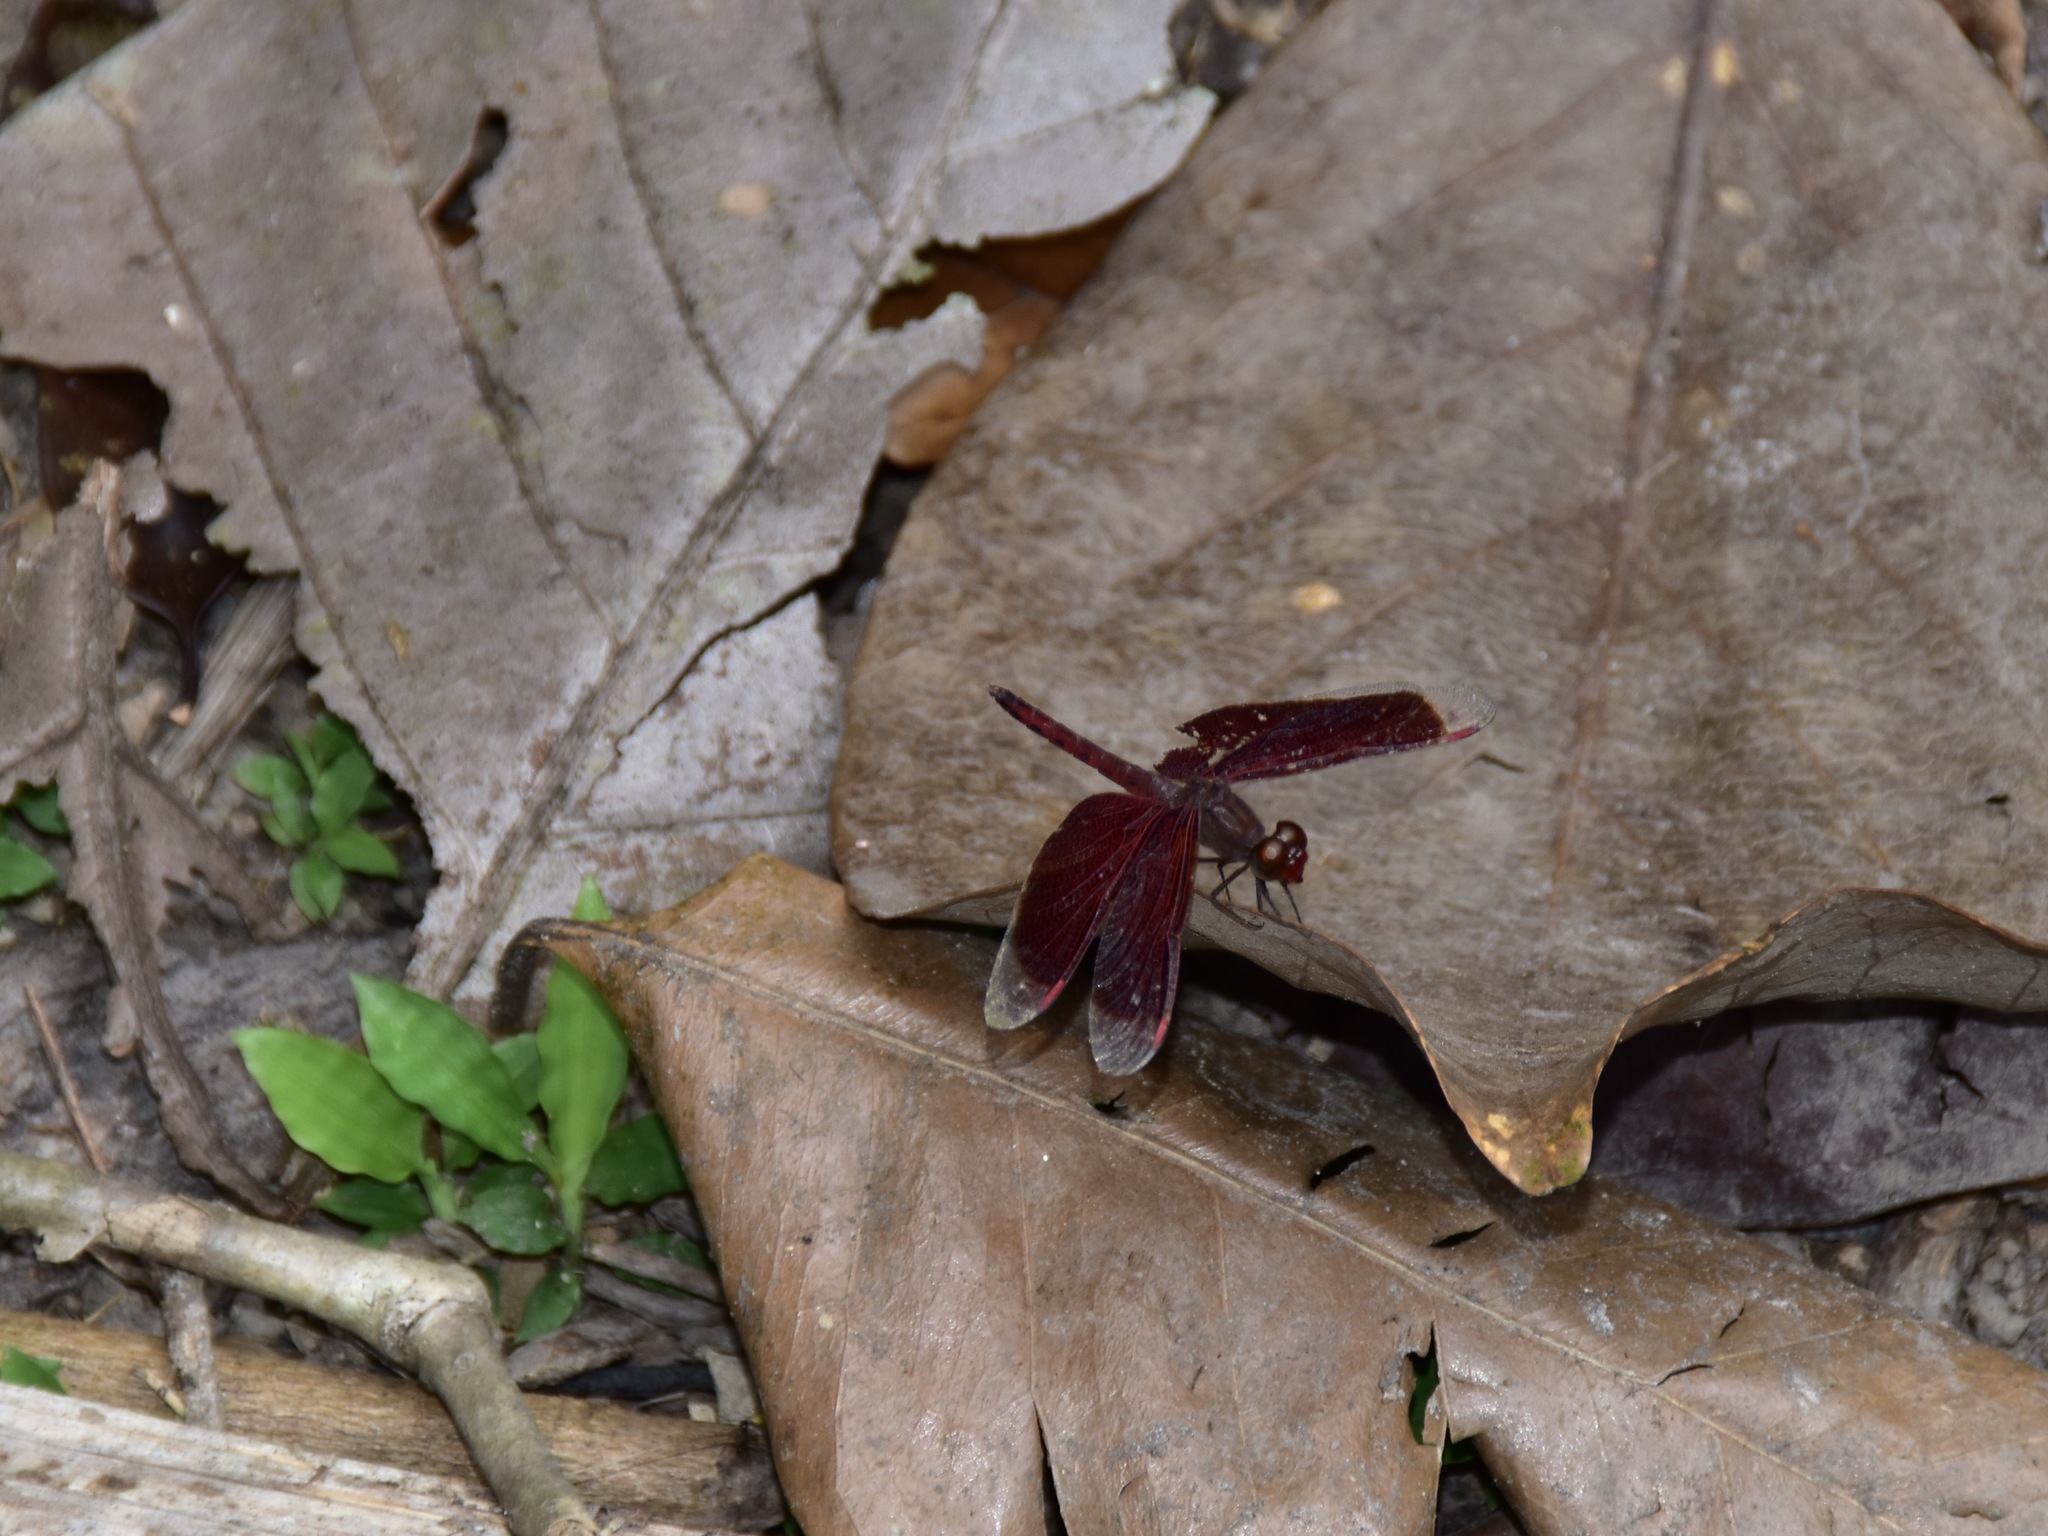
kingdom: Animalia
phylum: Arthropoda
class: Insecta
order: Odonata
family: Libellulidae
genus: Neurothemis
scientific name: Neurothemis fluctuans
